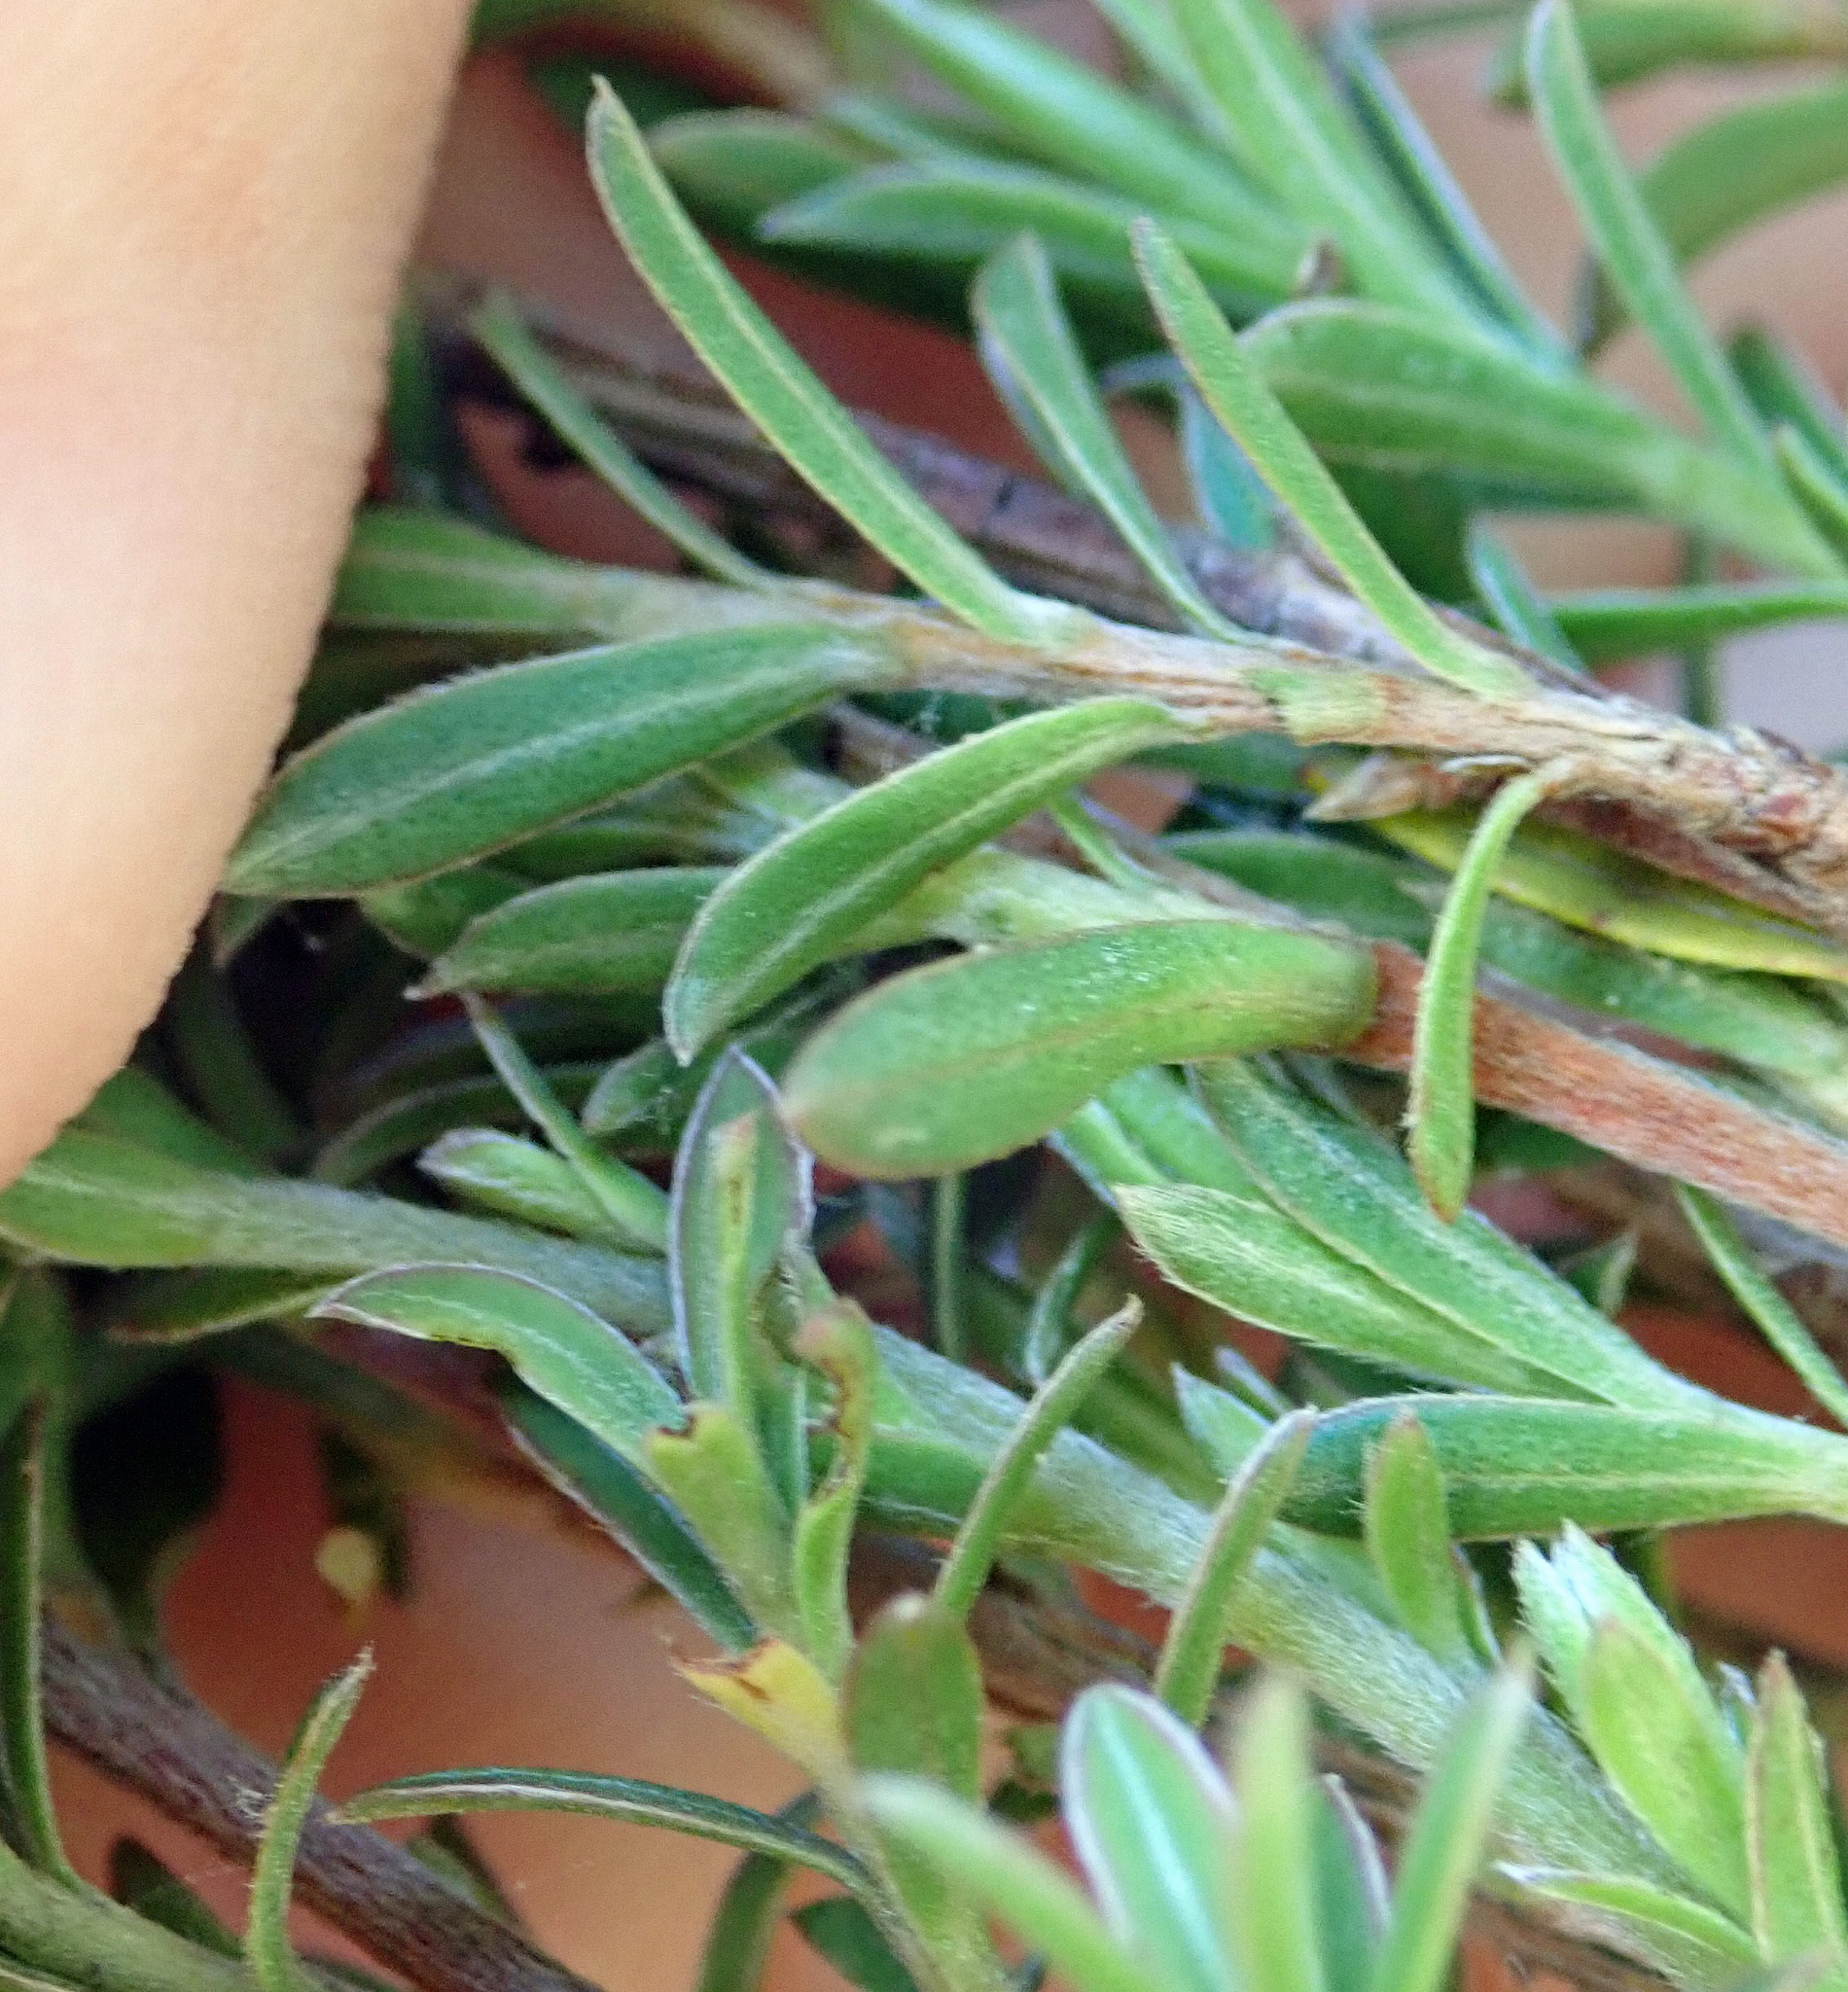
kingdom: Plantae
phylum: Tracheophyta
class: Magnoliopsida
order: Myrtales
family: Myrtaceae
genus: Kunzea
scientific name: Kunzea robusta
